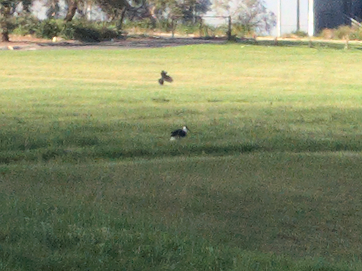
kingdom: Animalia
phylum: Chordata
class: Aves
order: Pelecaniformes
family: Threskiornithidae
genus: Threskiornis
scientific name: Threskiornis spinicollis
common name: Straw-necked ibis
